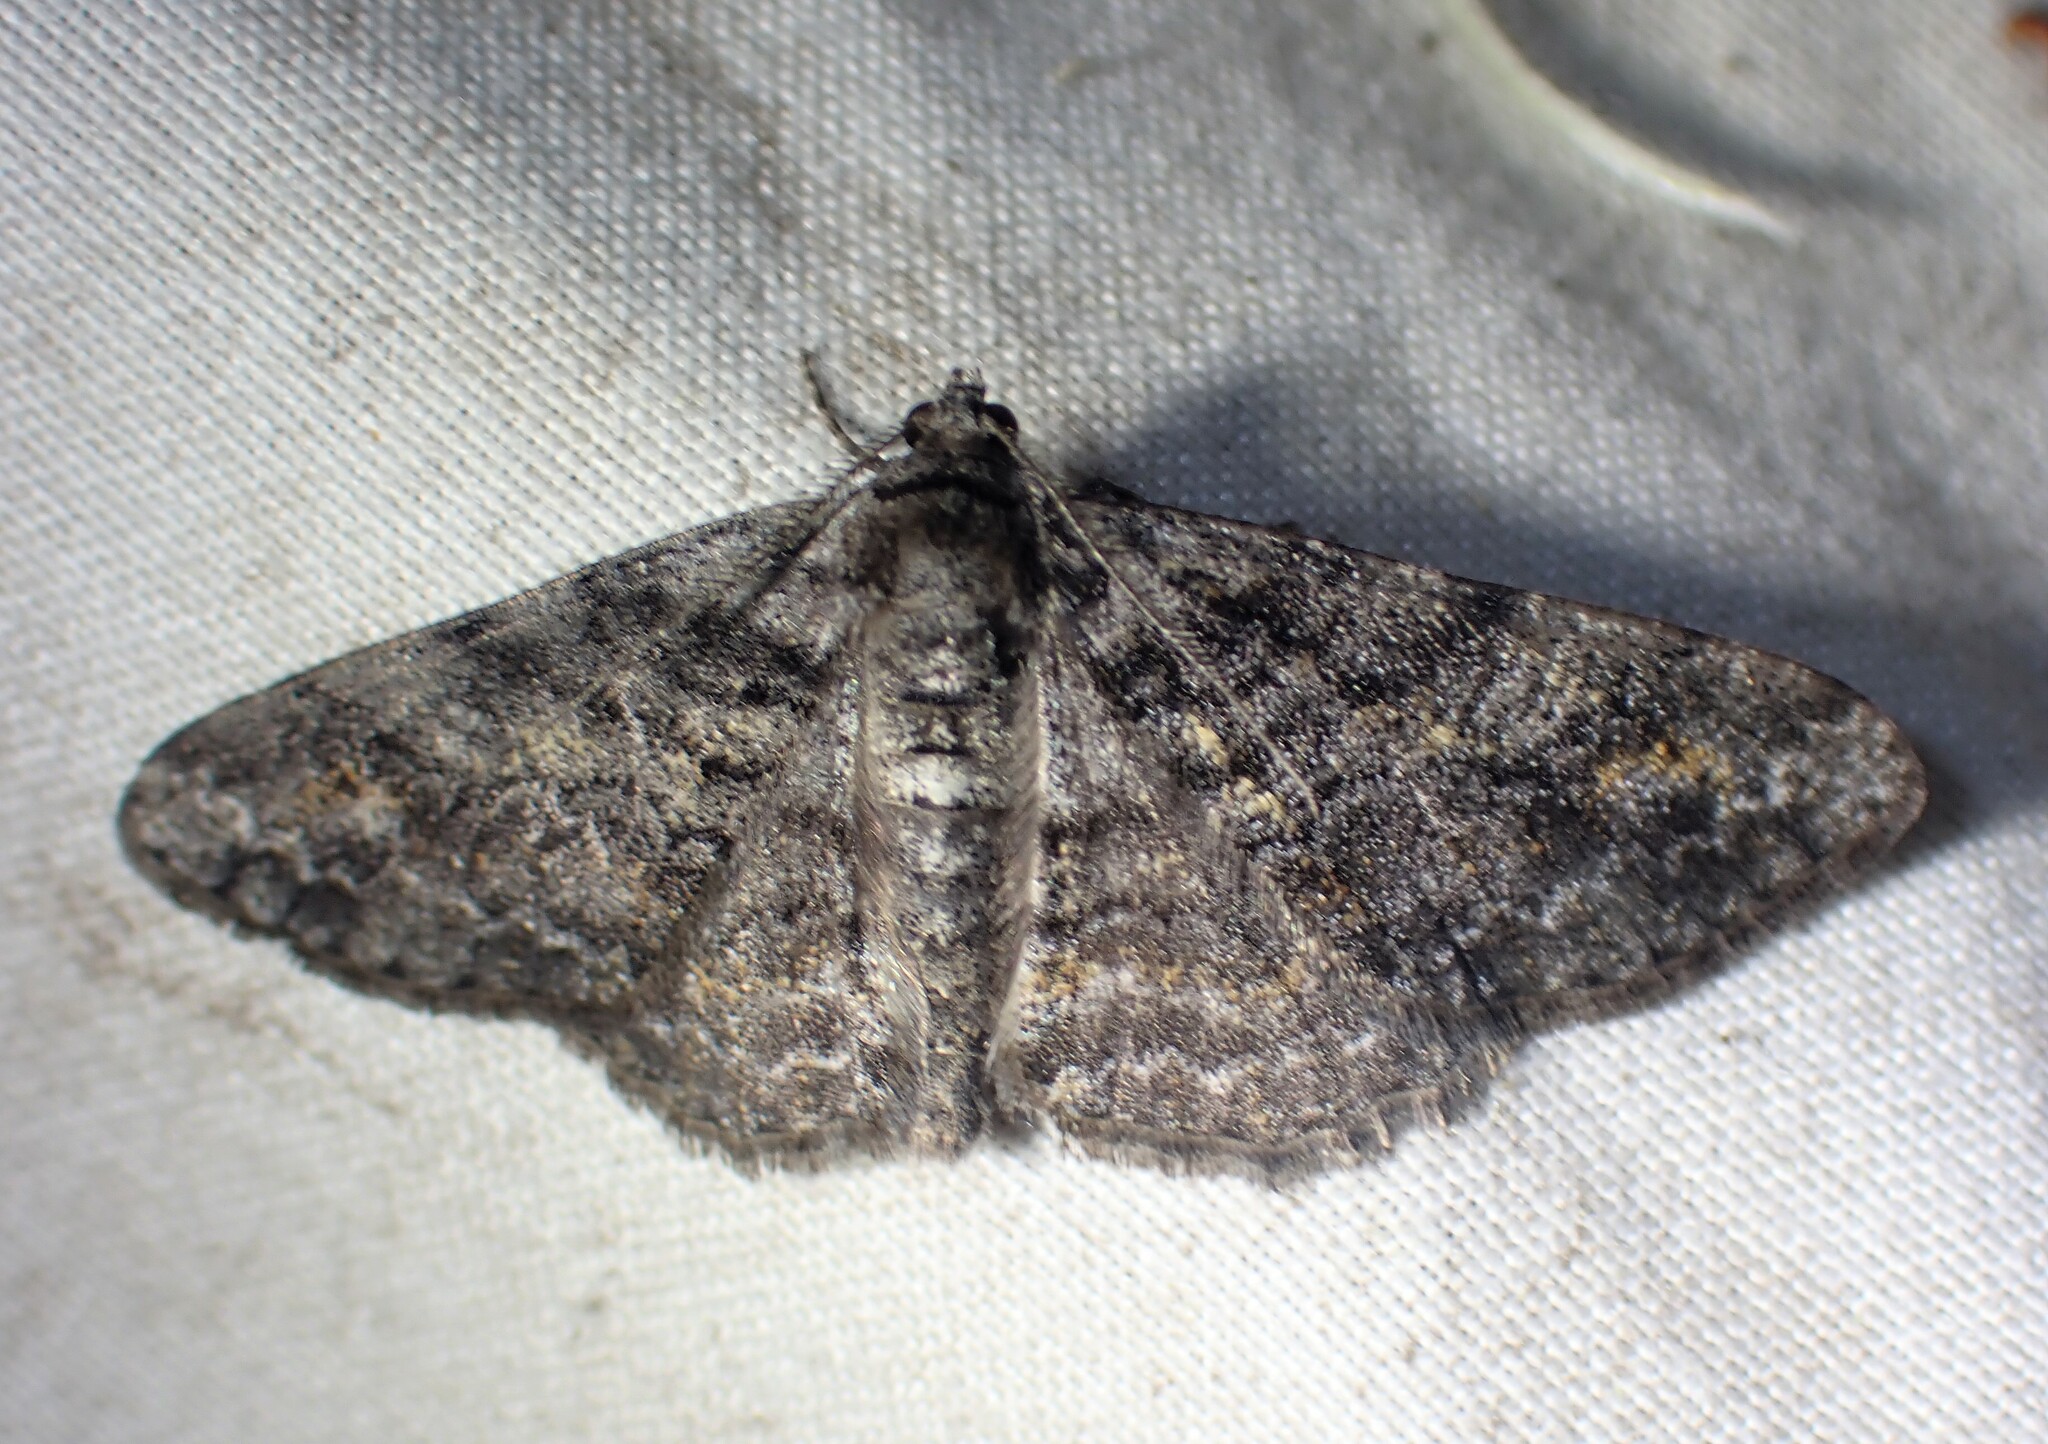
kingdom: Animalia
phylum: Arthropoda
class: Insecta
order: Lepidoptera
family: Geometridae
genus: Cleora
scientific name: Cleora sublunaria
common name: Double-lined gray
